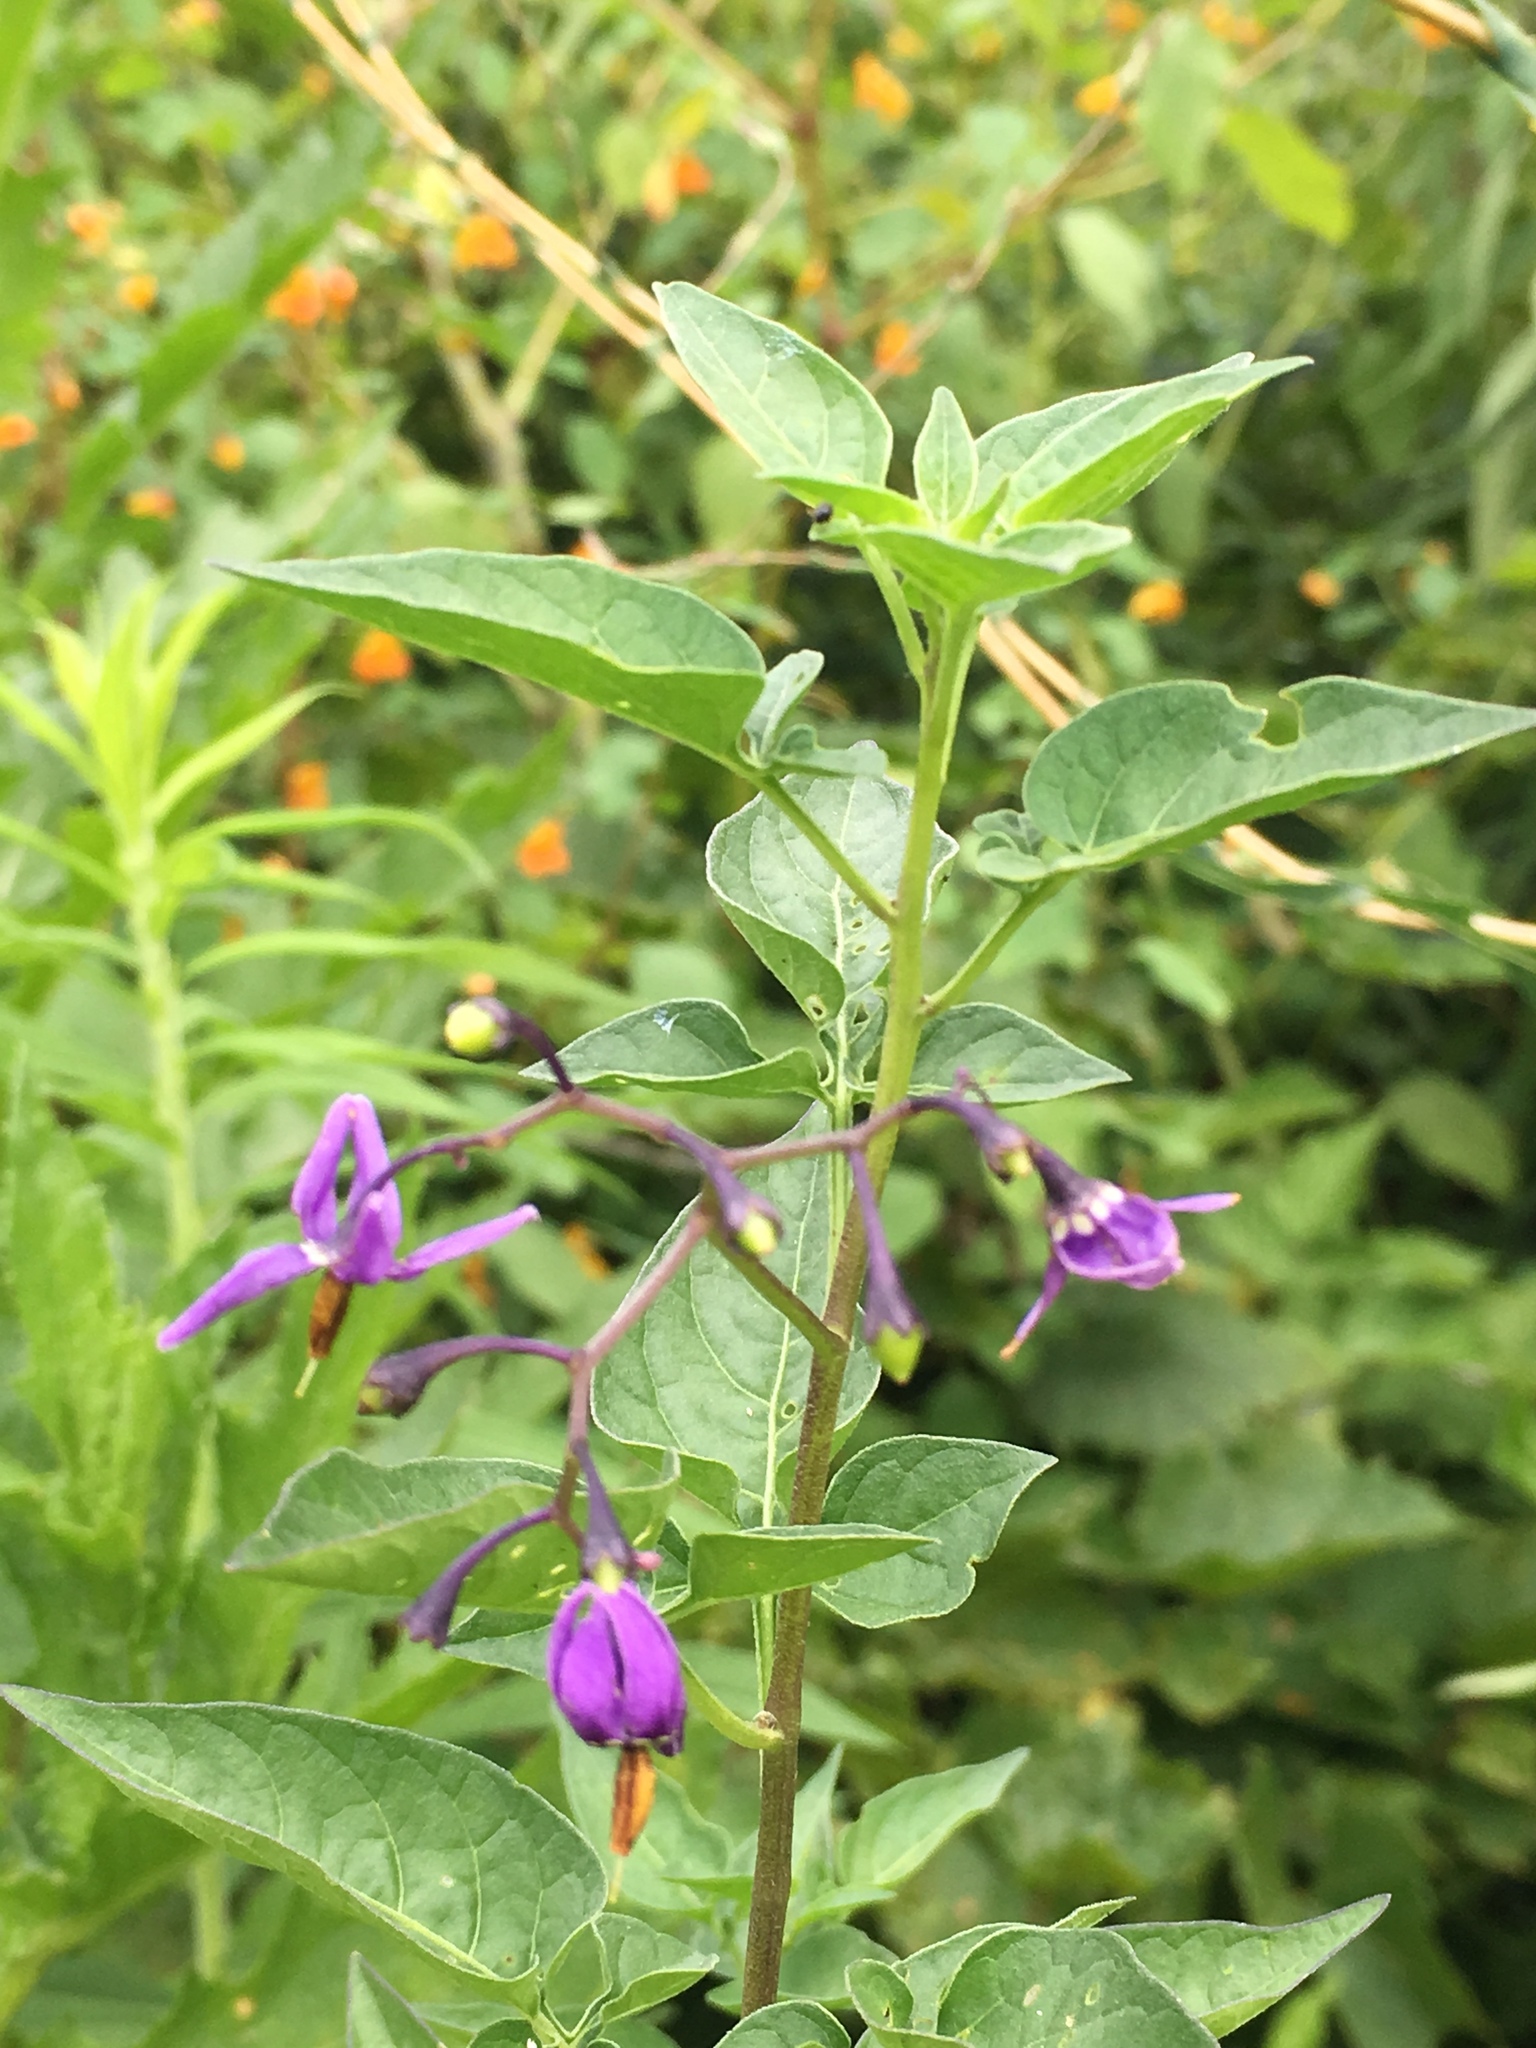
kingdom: Plantae
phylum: Tracheophyta
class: Magnoliopsida
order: Solanales
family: Solanaceae
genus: Solanum
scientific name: Solanum dulcamara
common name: Climbing nightshade
